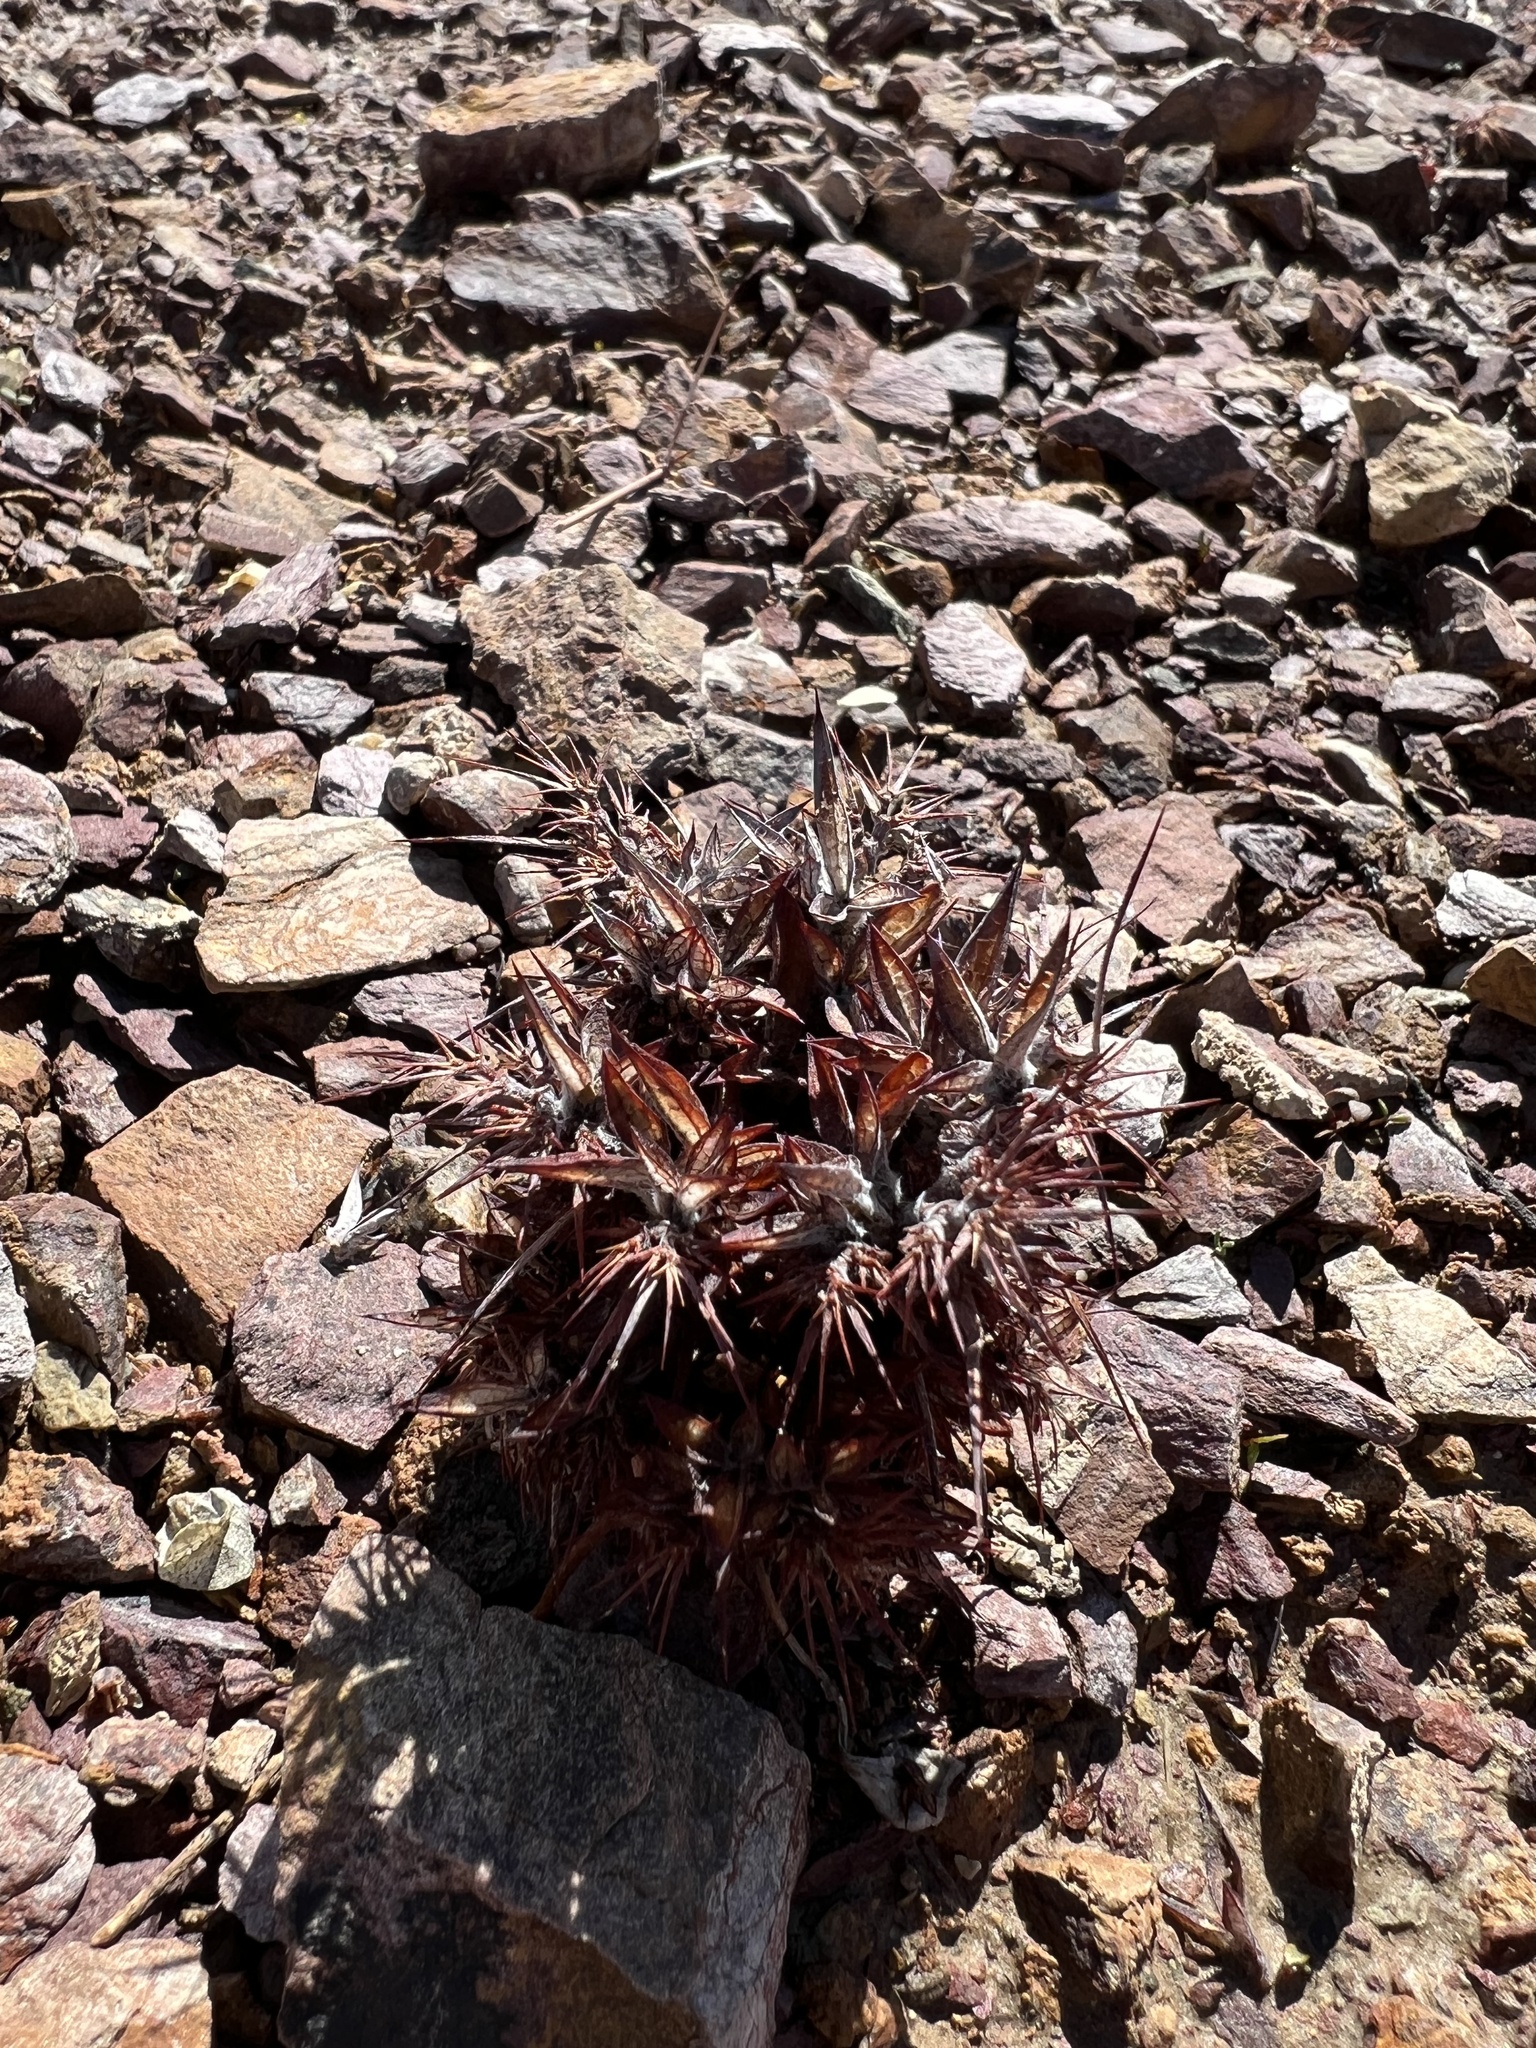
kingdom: Plantae
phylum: Tracheophyta
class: Magnoliopsida
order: Caryophyllales
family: Polygonaceae
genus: Chorizanthe
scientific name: Chorizanthe rigida
